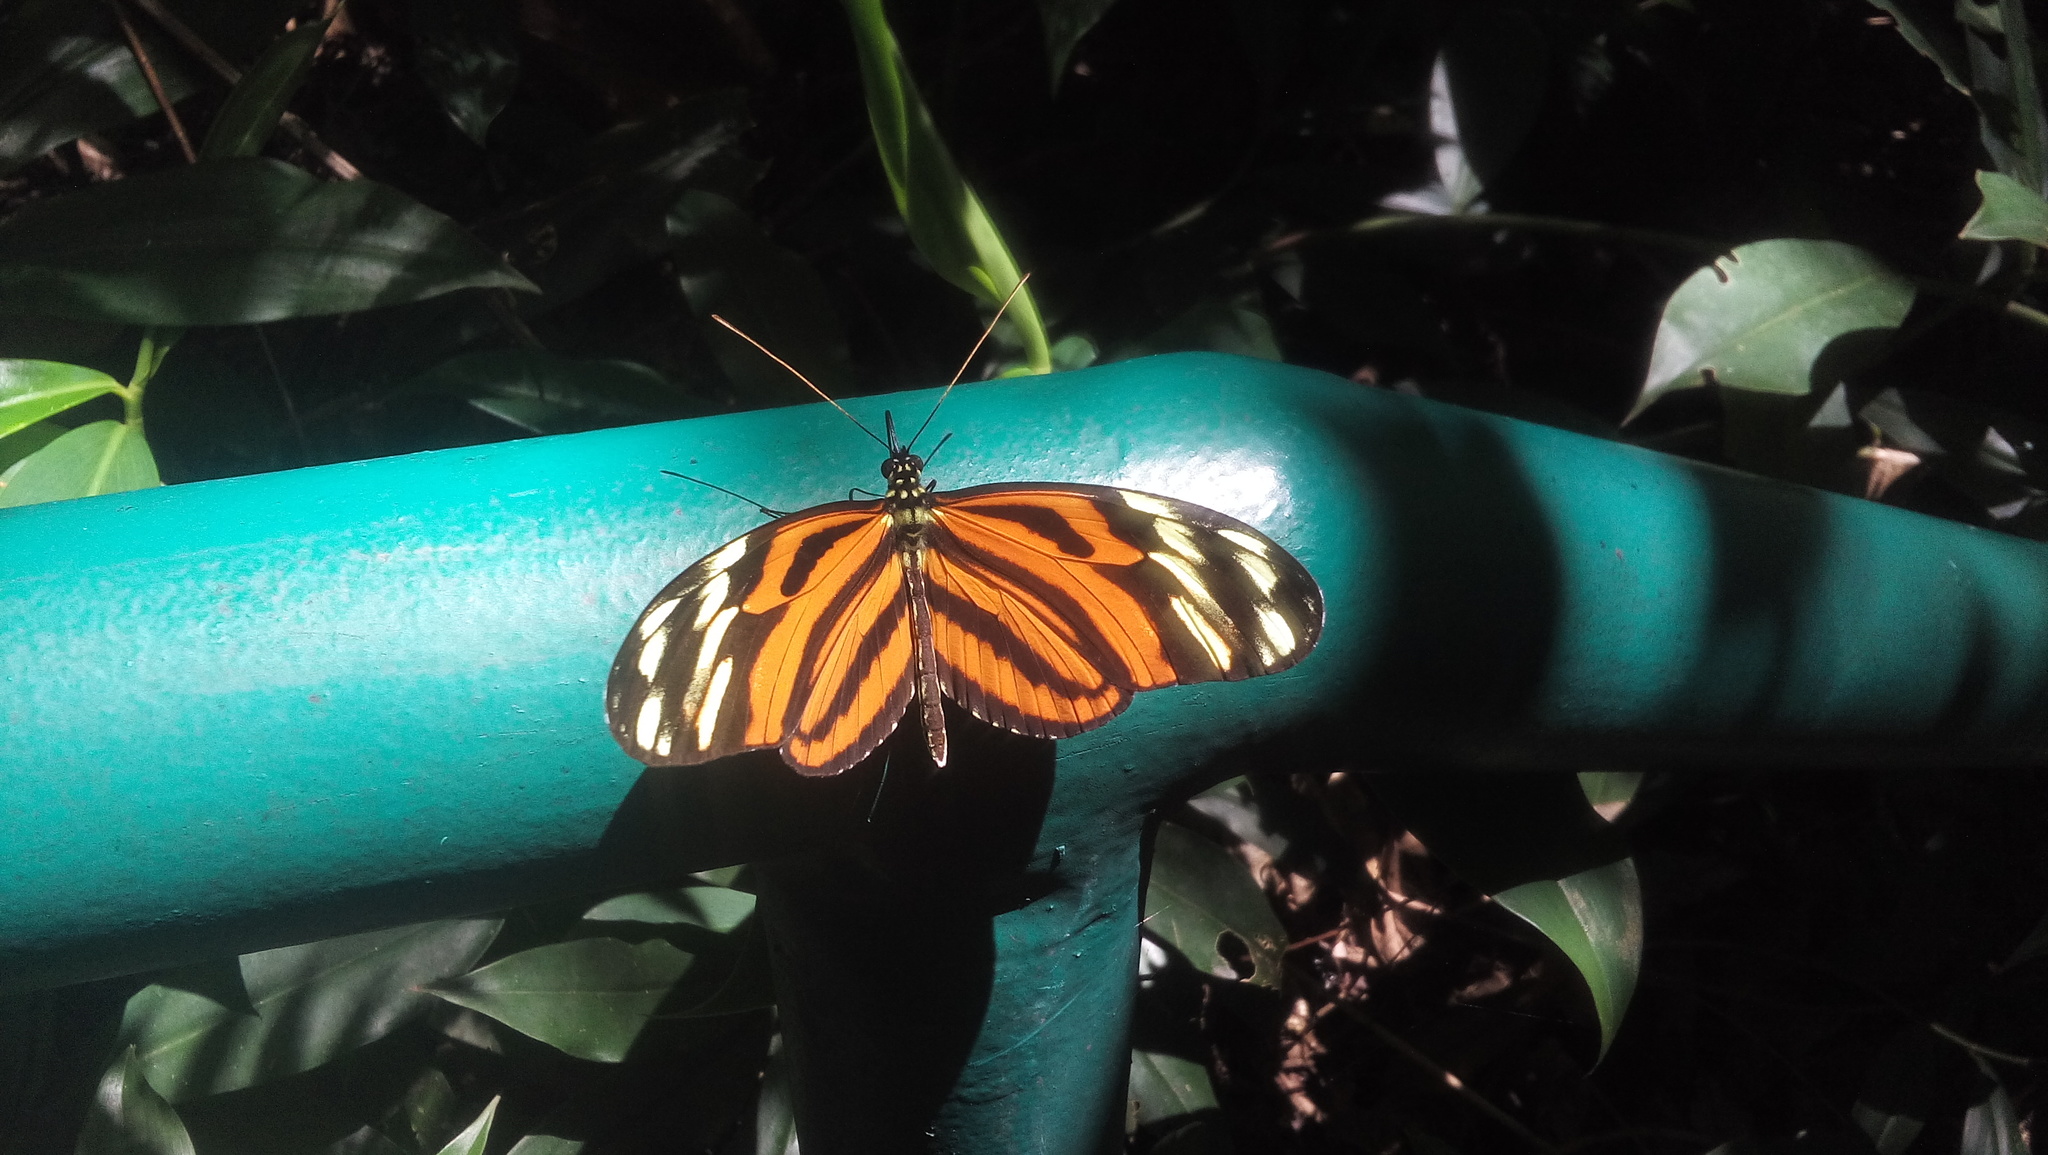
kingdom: Animalia
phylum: Arthropoda
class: Insecta
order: Lepidoptera
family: Nymphalidae
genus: Heliconius
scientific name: Heliconius ismenius
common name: Ismenius tiger
